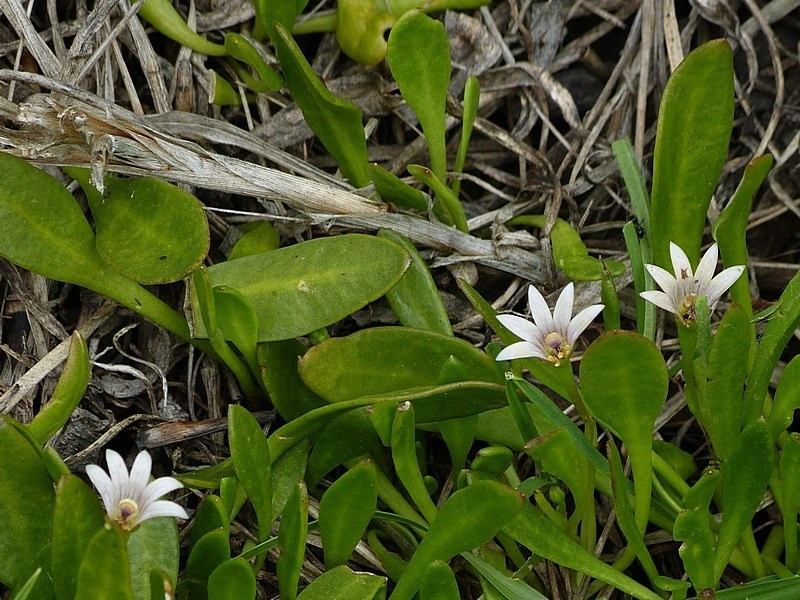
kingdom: Plantae
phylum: Tracheophyta
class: Magnoliopsida
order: Asterales
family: Goodeniaceae
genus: Goodenia
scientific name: Goodenia radicans
